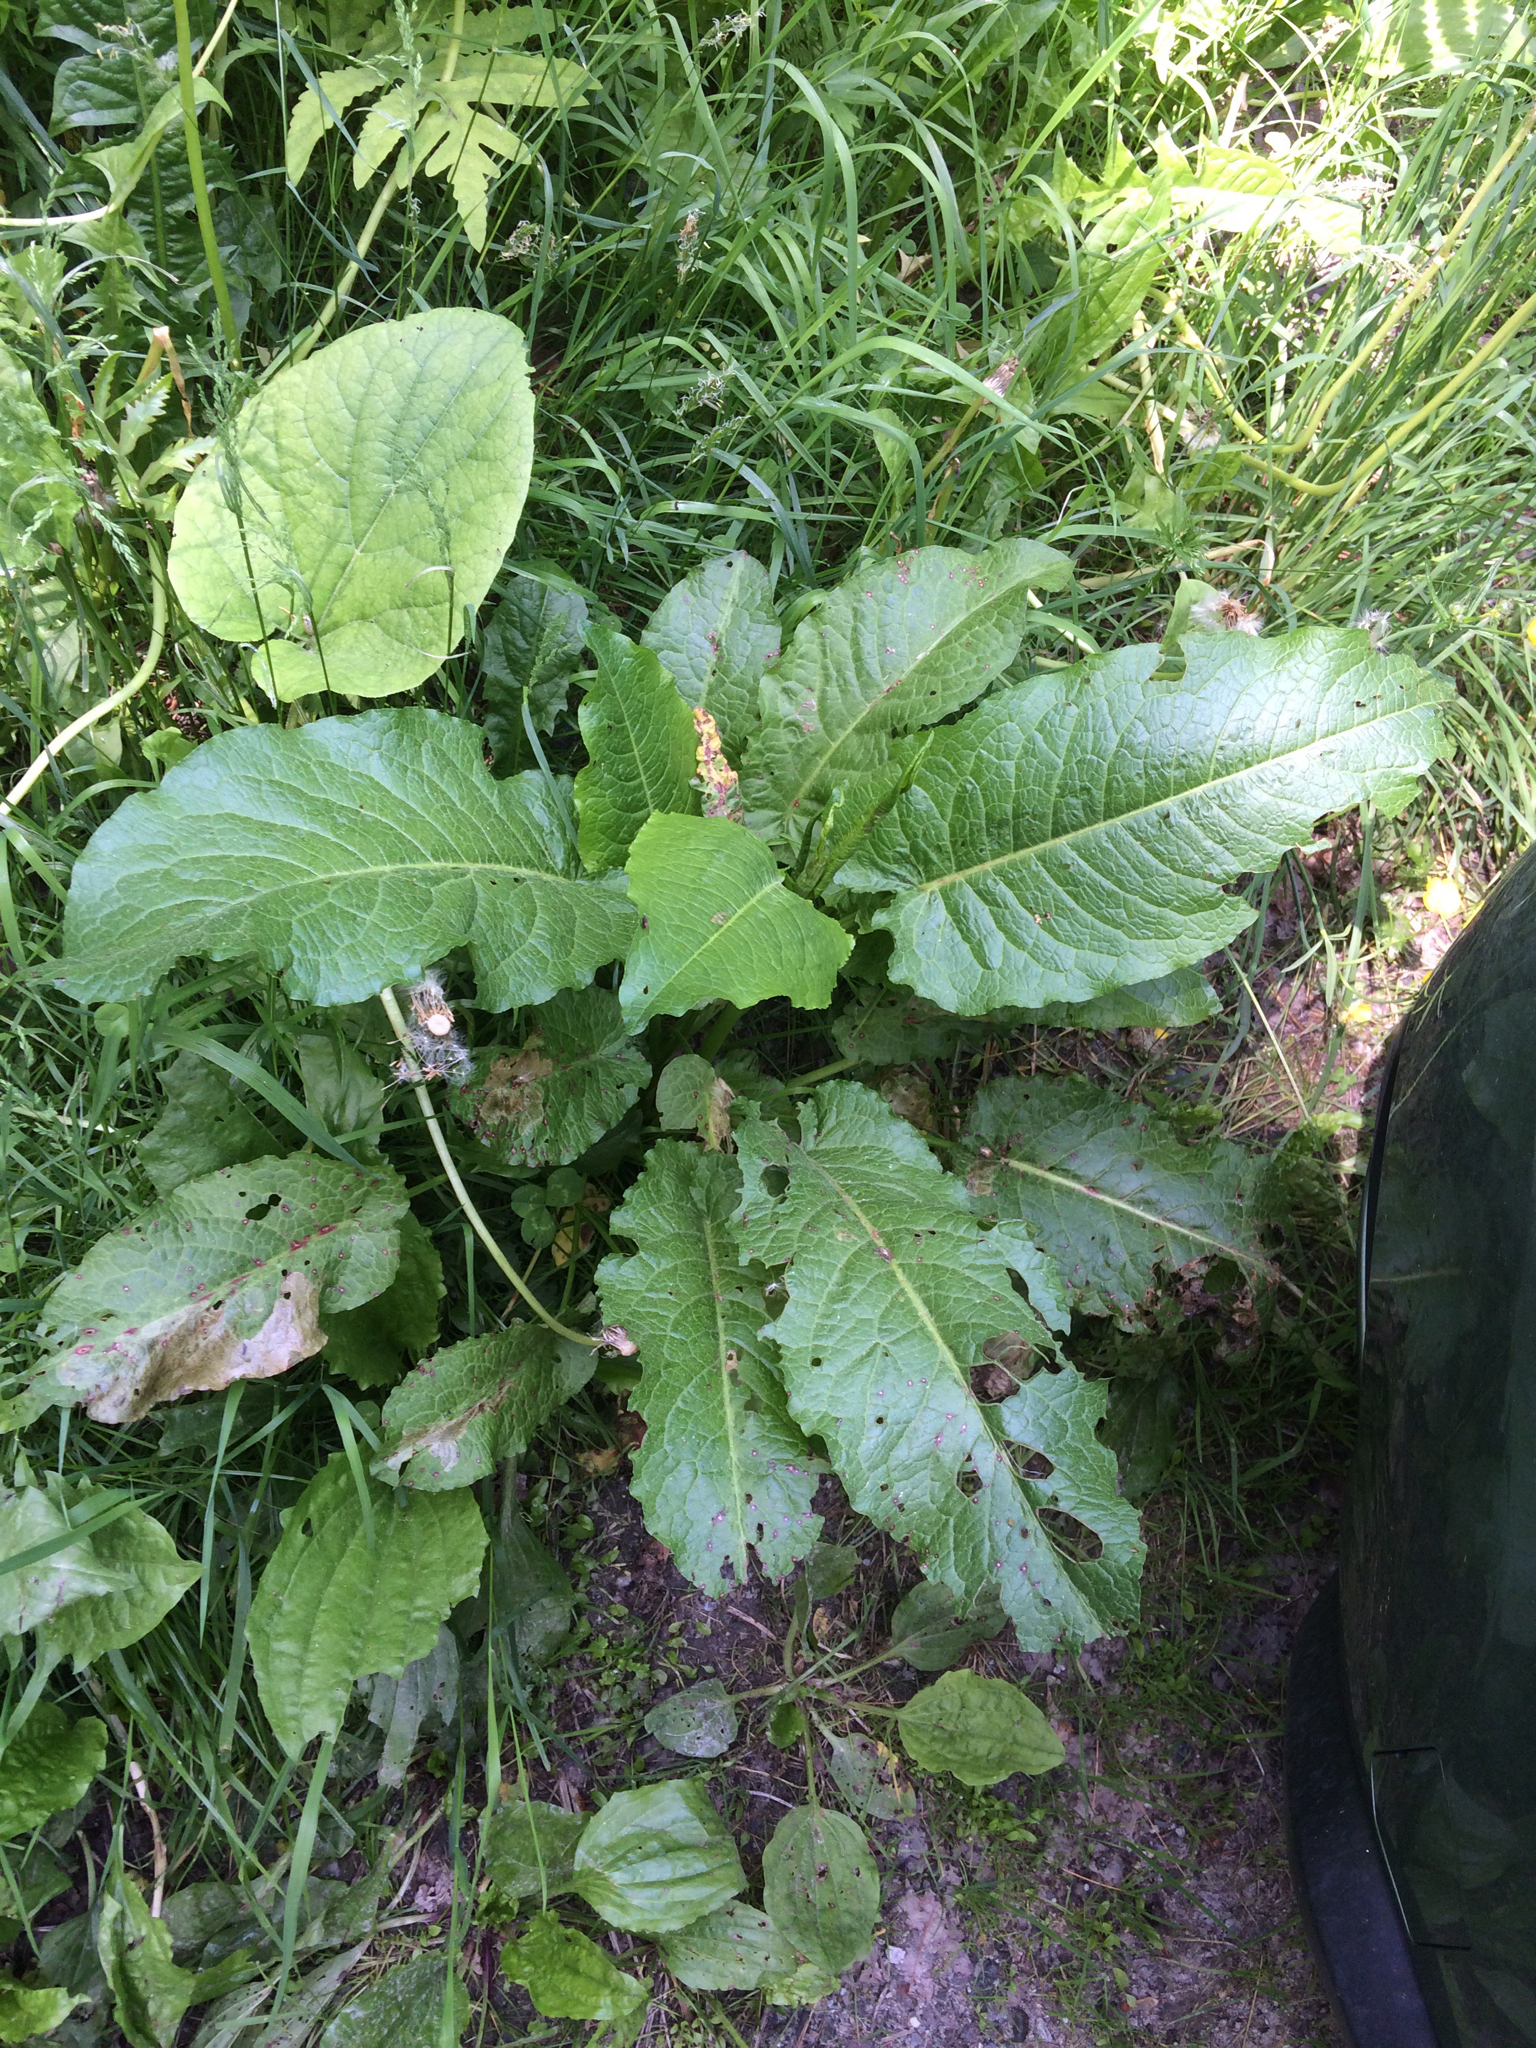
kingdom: Plantae
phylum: Tracheophyta
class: Magnoliopsida
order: Caryophyllales
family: Polygonaceae
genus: Rumex
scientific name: Rumex obtusifolius
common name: Bitter dock
